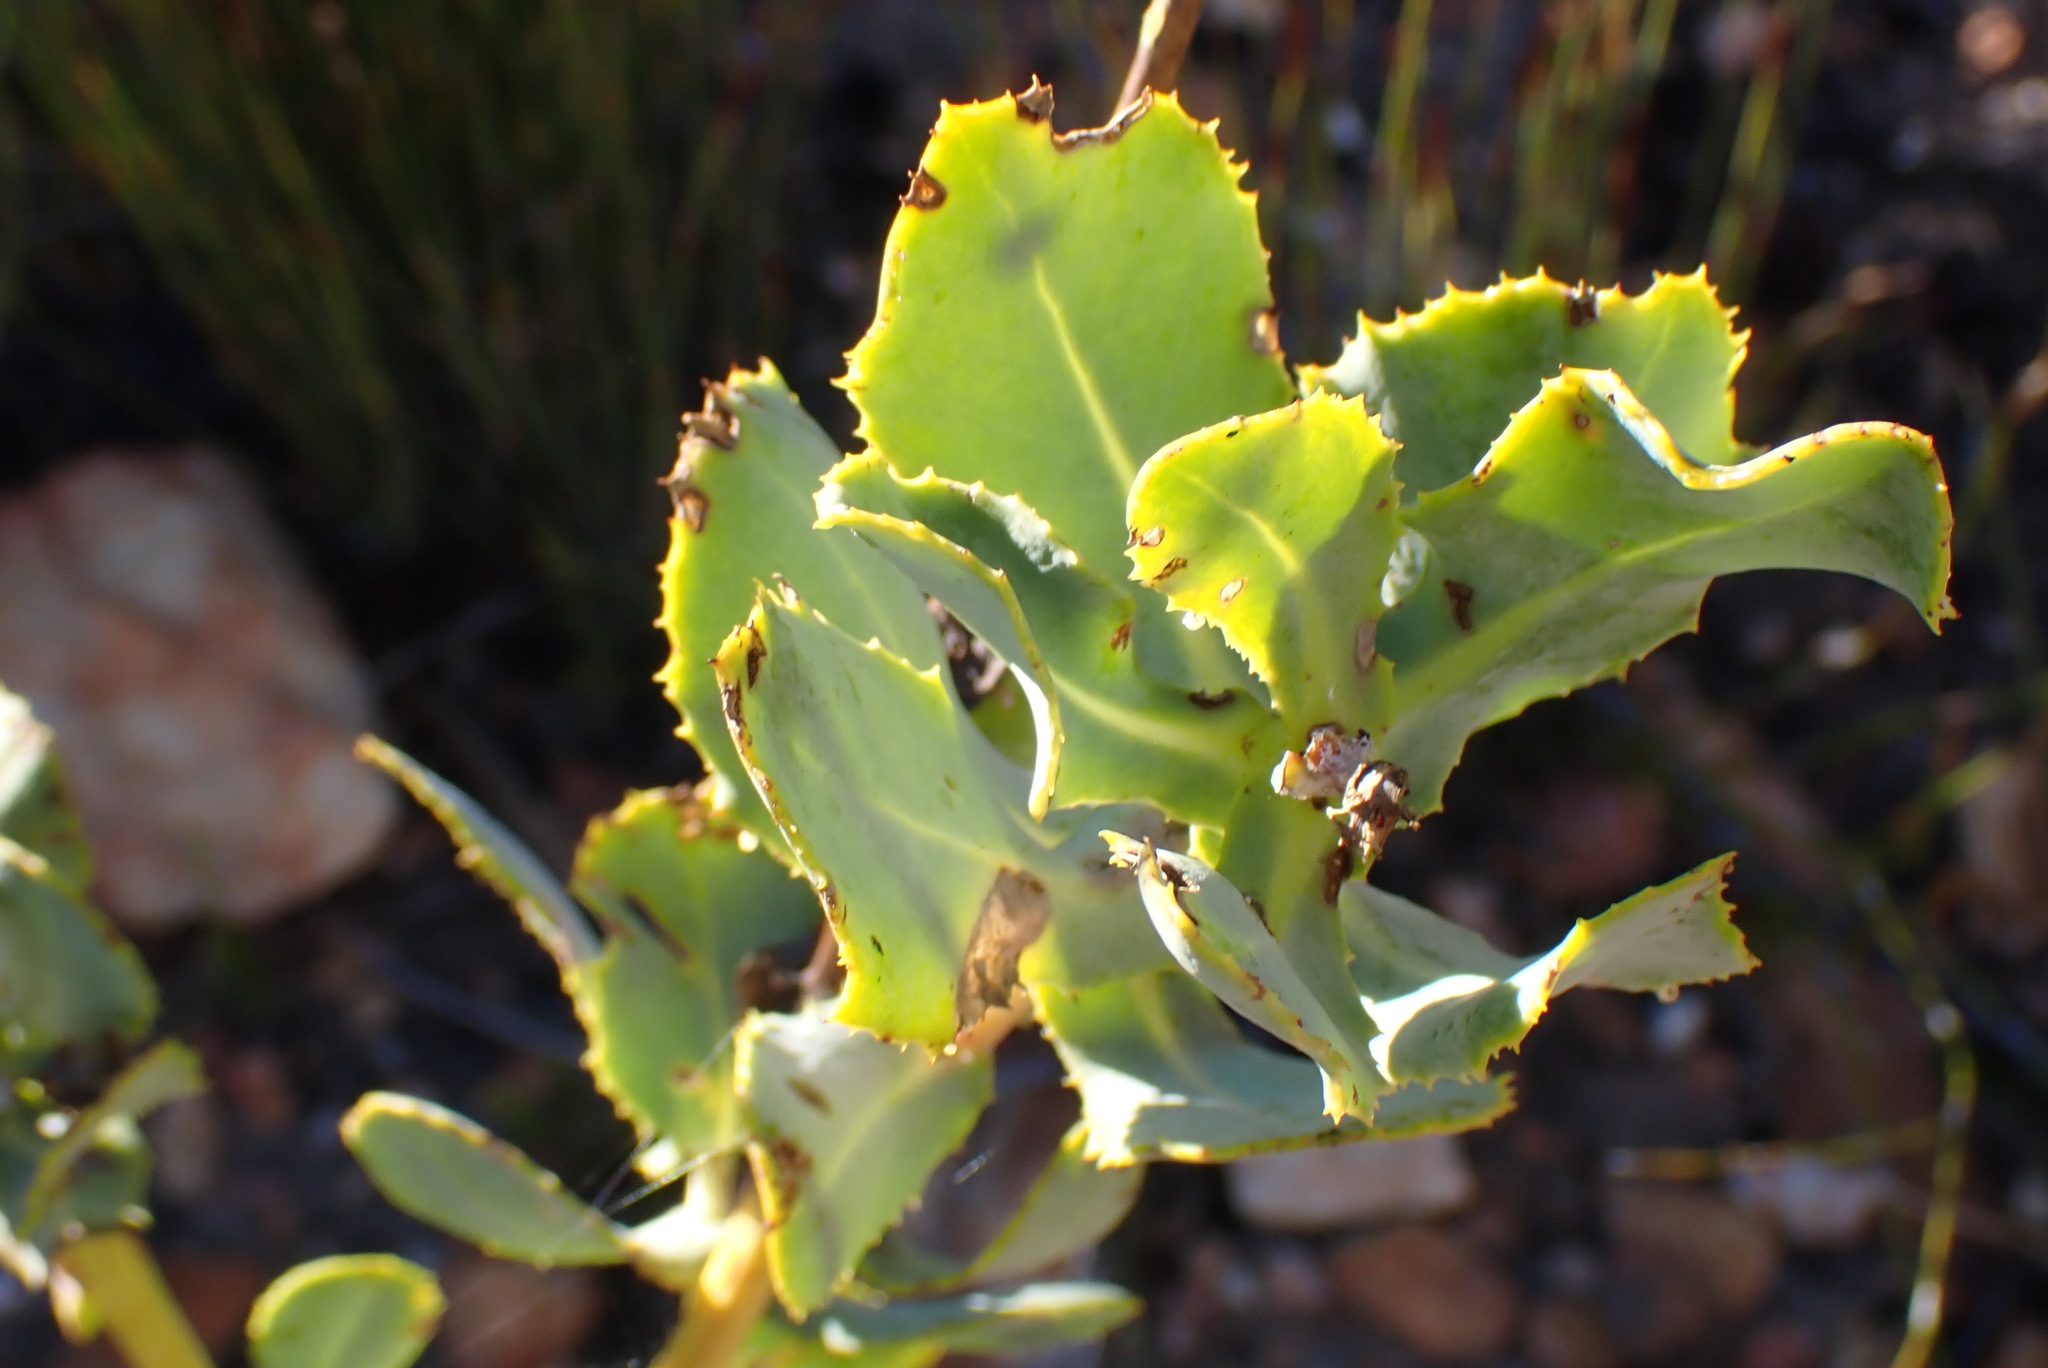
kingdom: Plantae
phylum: Tracheophyta
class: Magnoliopsida
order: Asterales
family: Asteraceae
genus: Othonna
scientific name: Othonna parviflora
